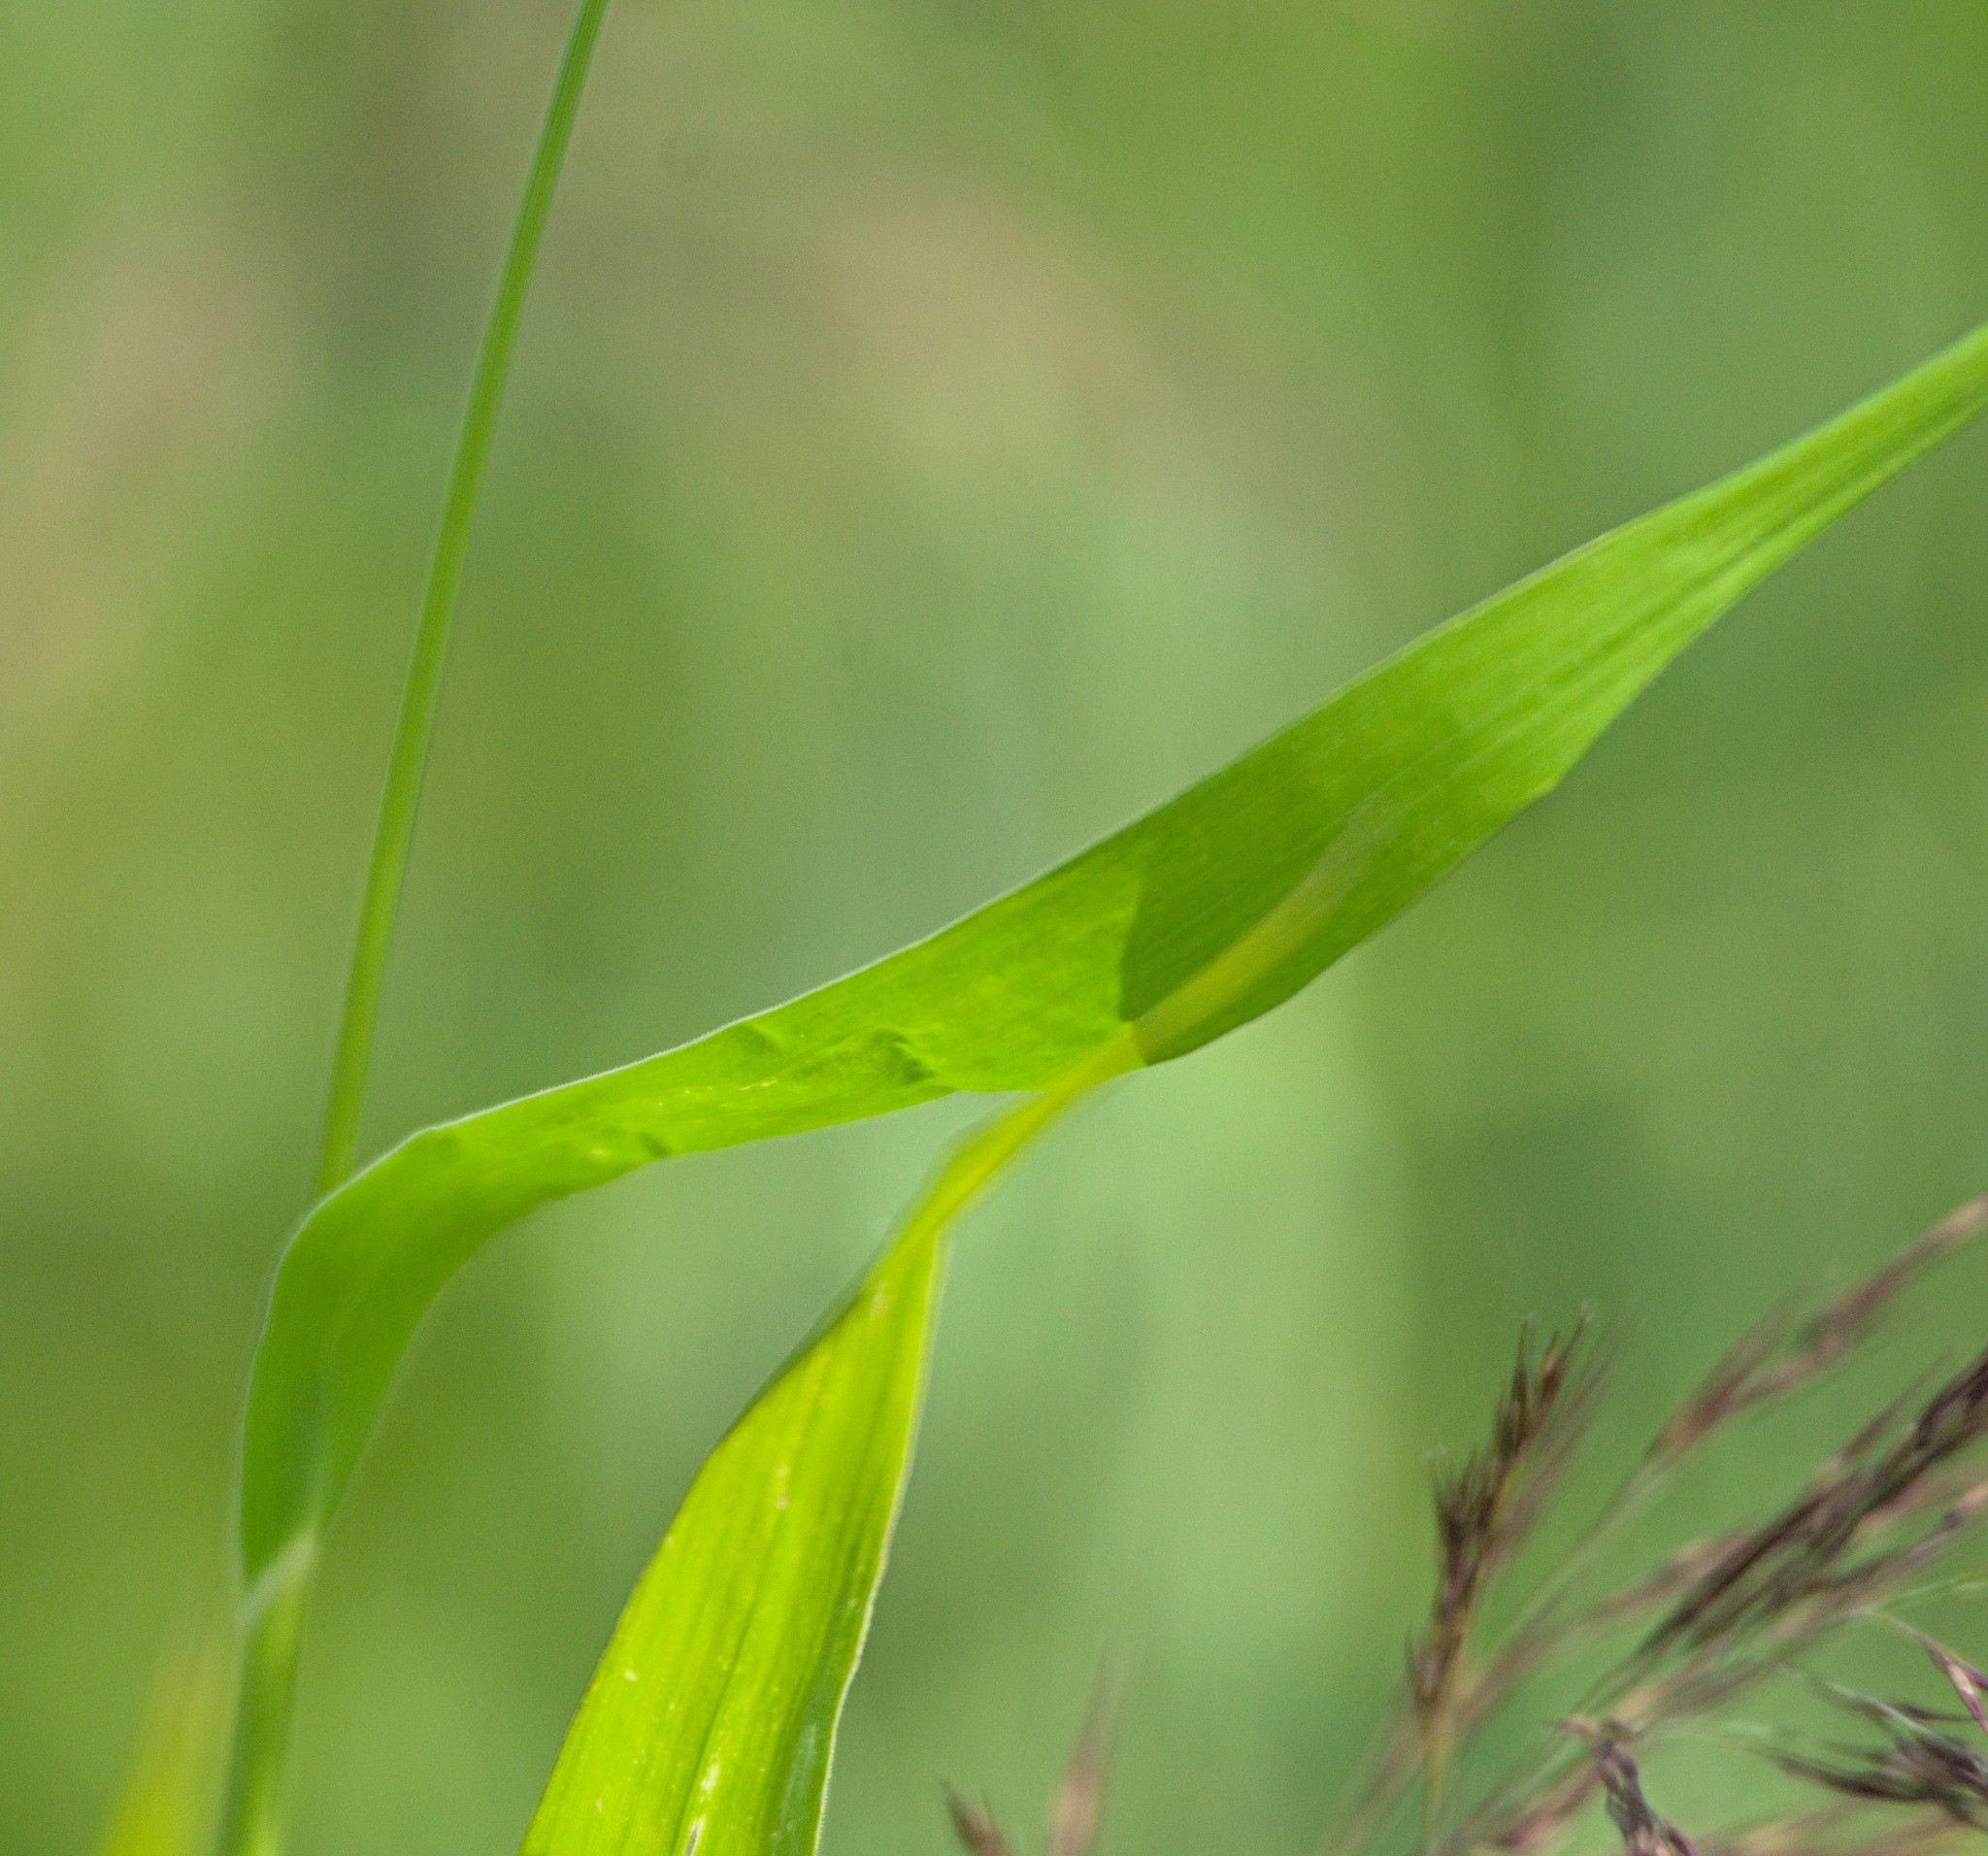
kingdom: Plantae
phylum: Tracheophyta
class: Liliopsida
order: Poales
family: Poaceae
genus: Setaria
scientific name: Setaria viridis
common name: Green bristlegrass
